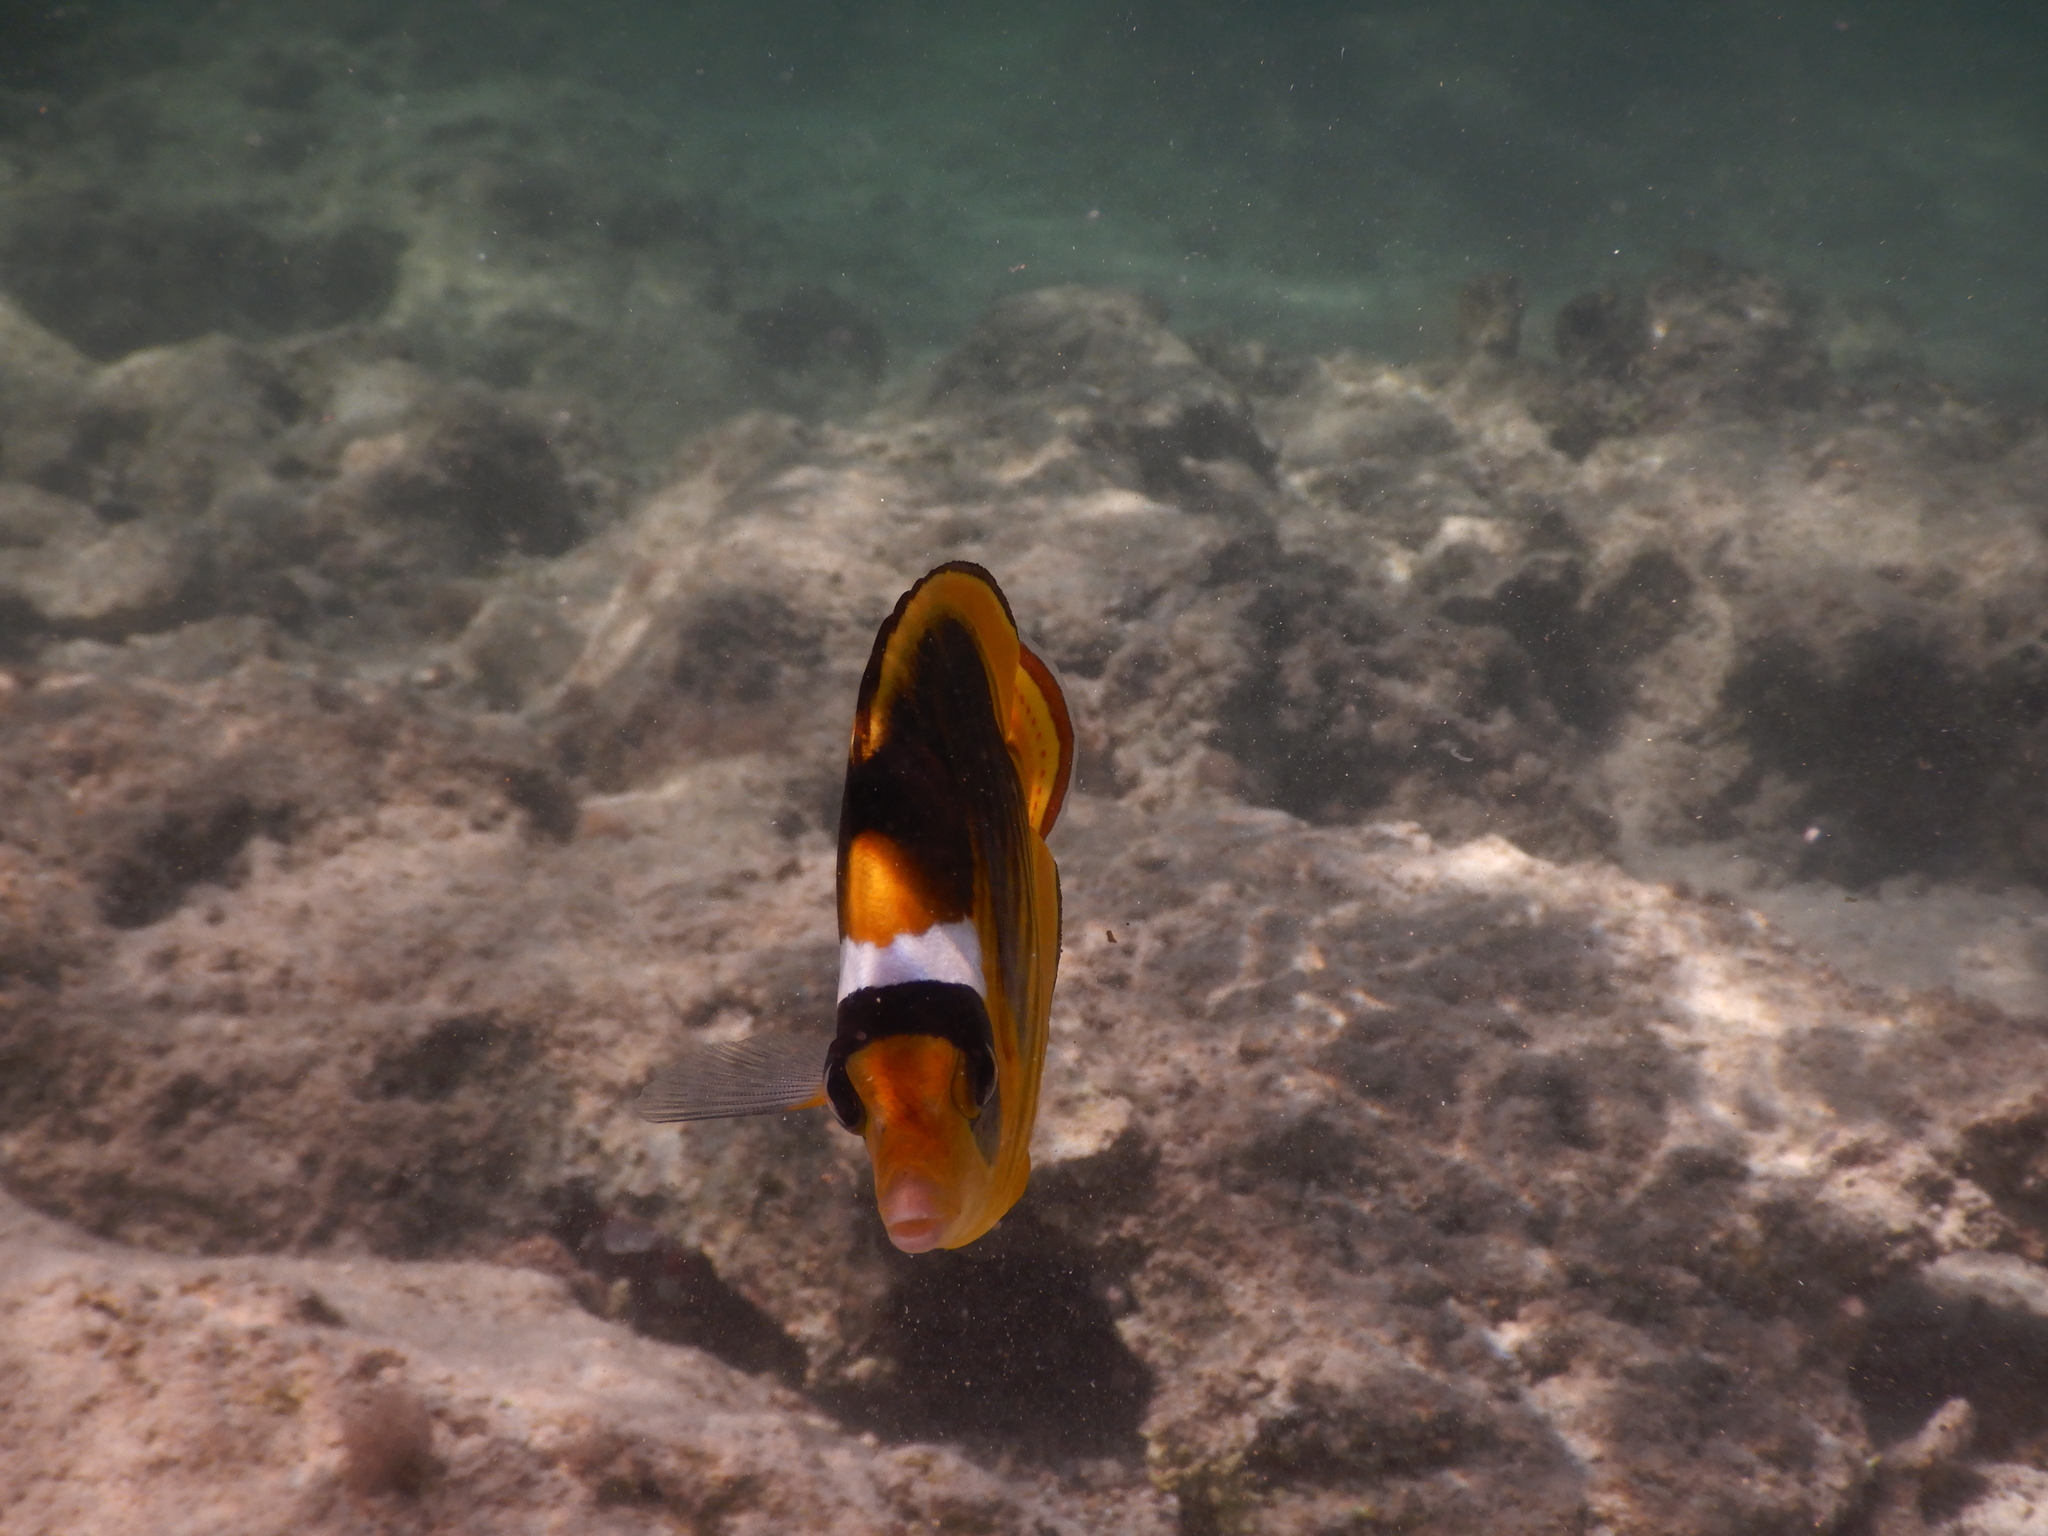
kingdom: Animalia
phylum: Chordata
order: Perciformes
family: Chaetodontidae
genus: Chaetodon
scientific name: Chaetodon fasciatus
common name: Diagonal butterflyfish
